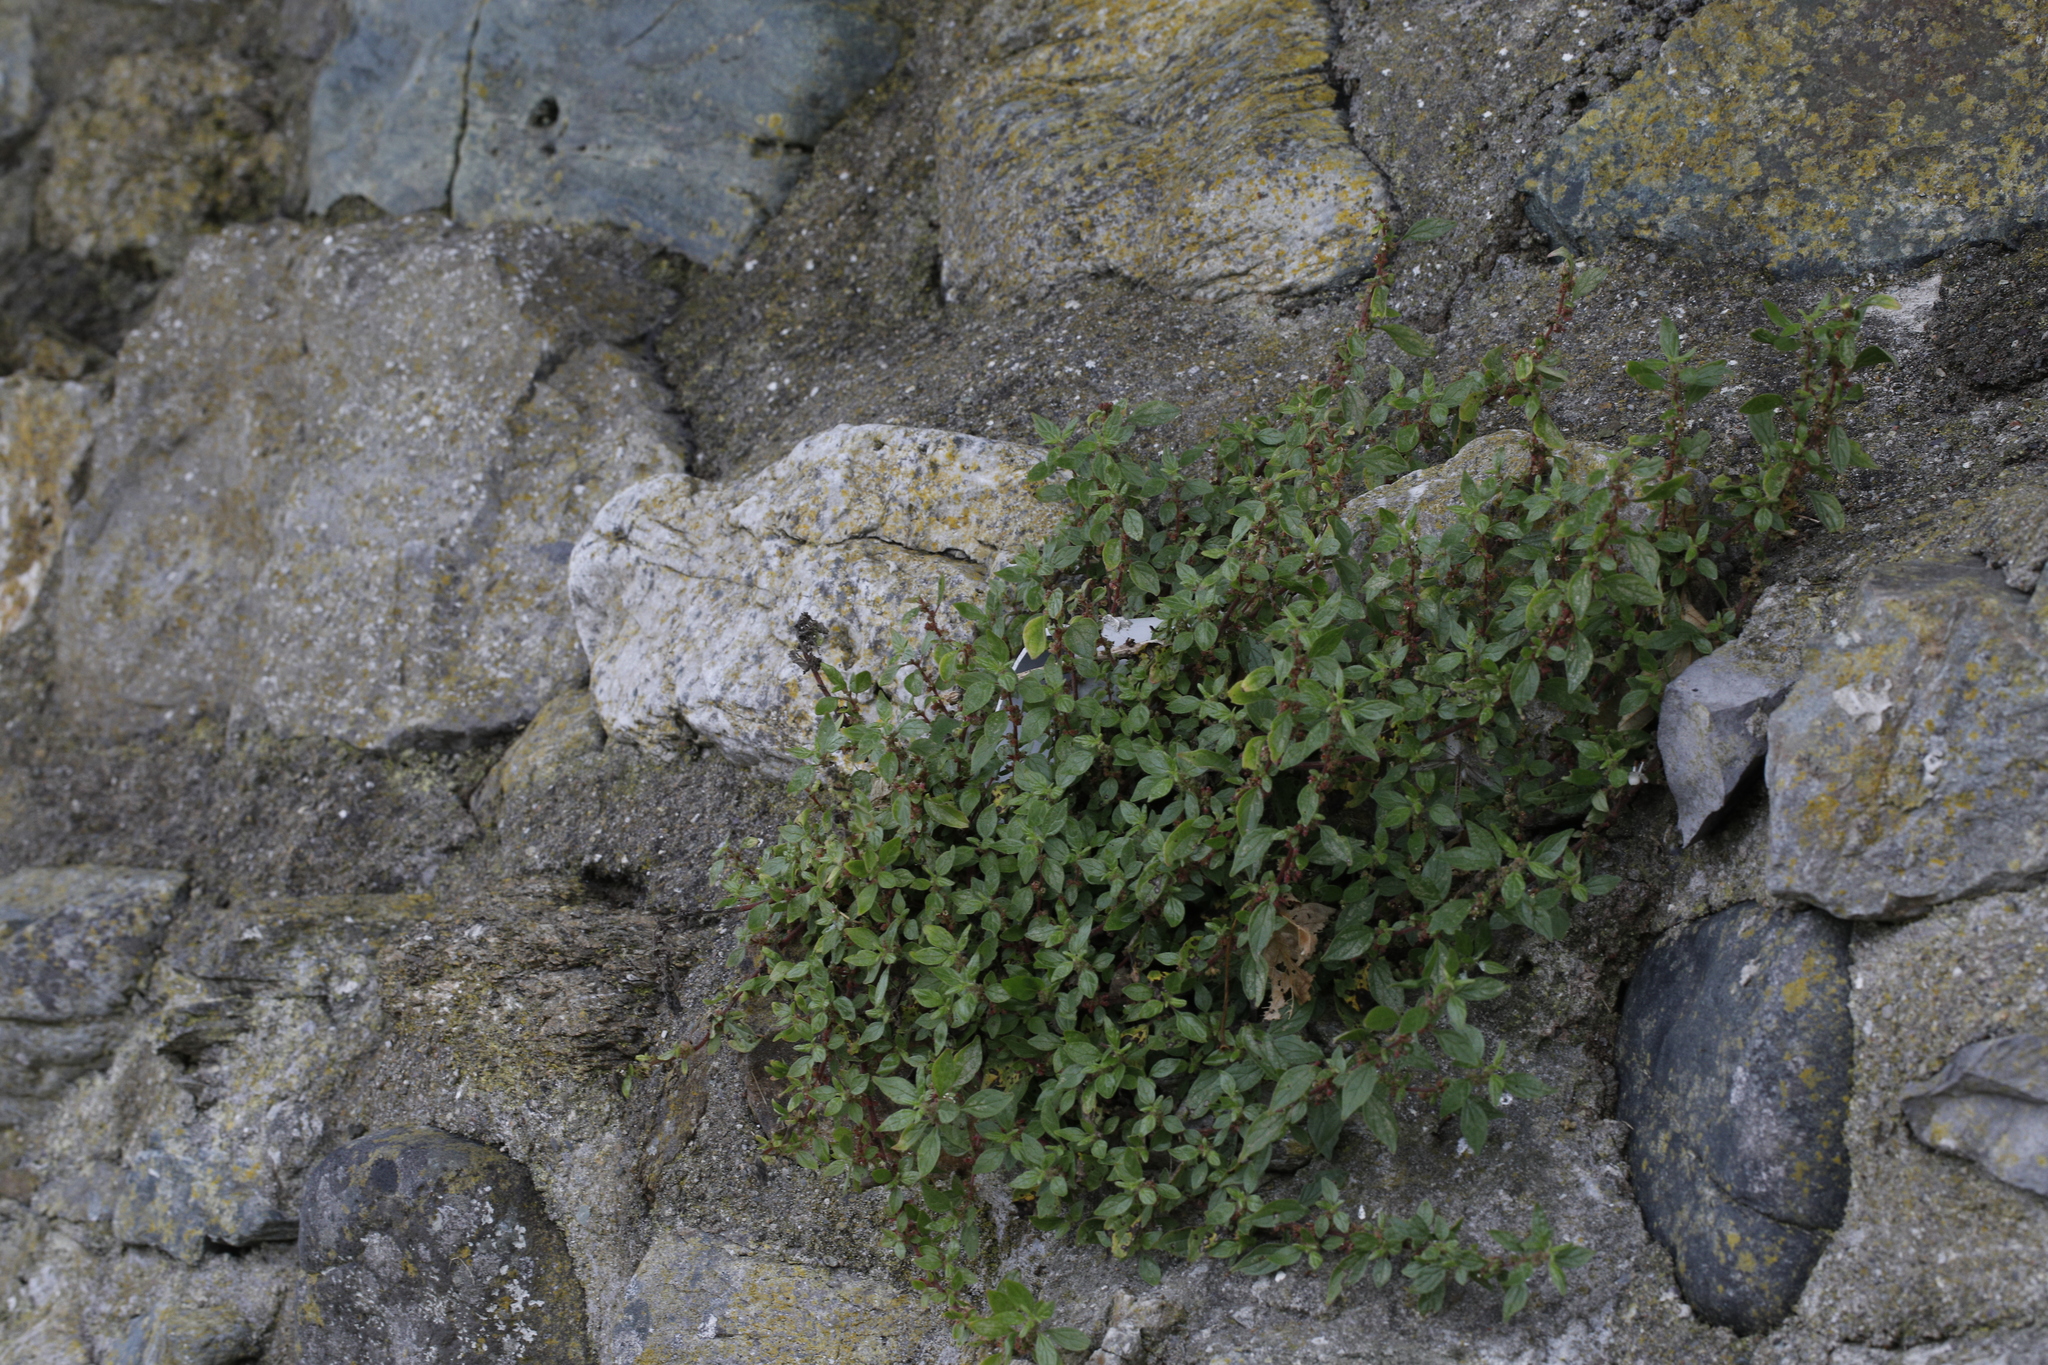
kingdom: Plantae
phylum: Tracheophyta
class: Magnoliopsida
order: Rosales
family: Urticaceae
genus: Parietaria
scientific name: Parietaria judaica
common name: Pellitory-of-the-wall
